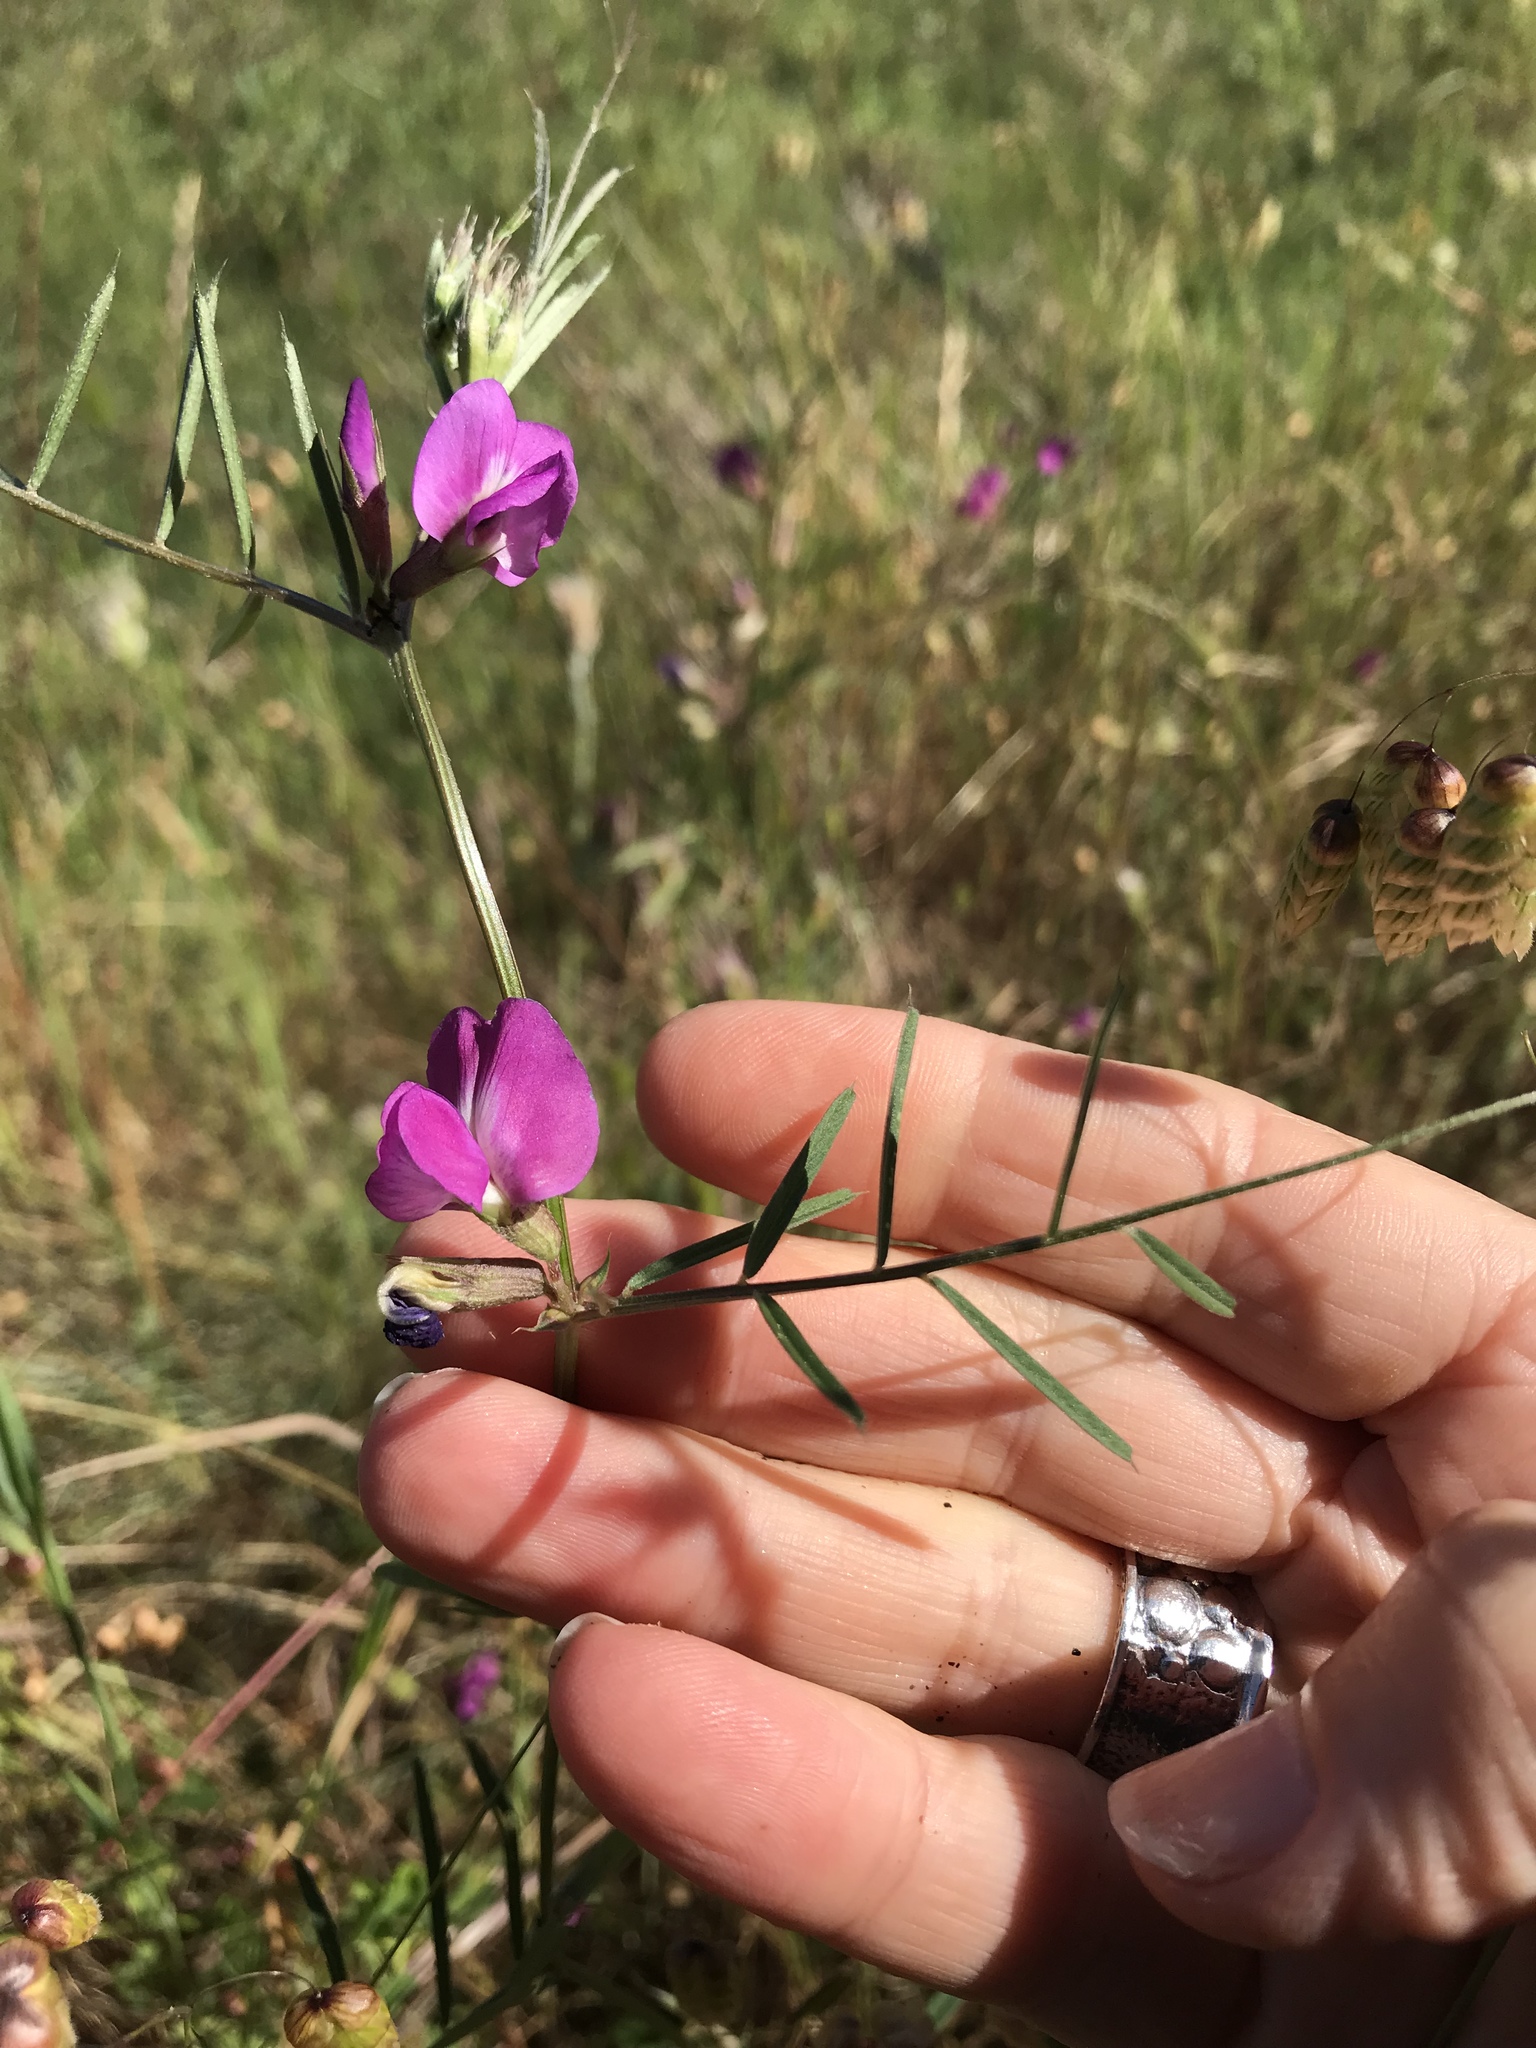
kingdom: Plantae
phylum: Tracheophyta
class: Magnoliopsida
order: Fabales
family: Fabaceae
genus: Vicia
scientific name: Vicia sativa
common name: Garden vetch
